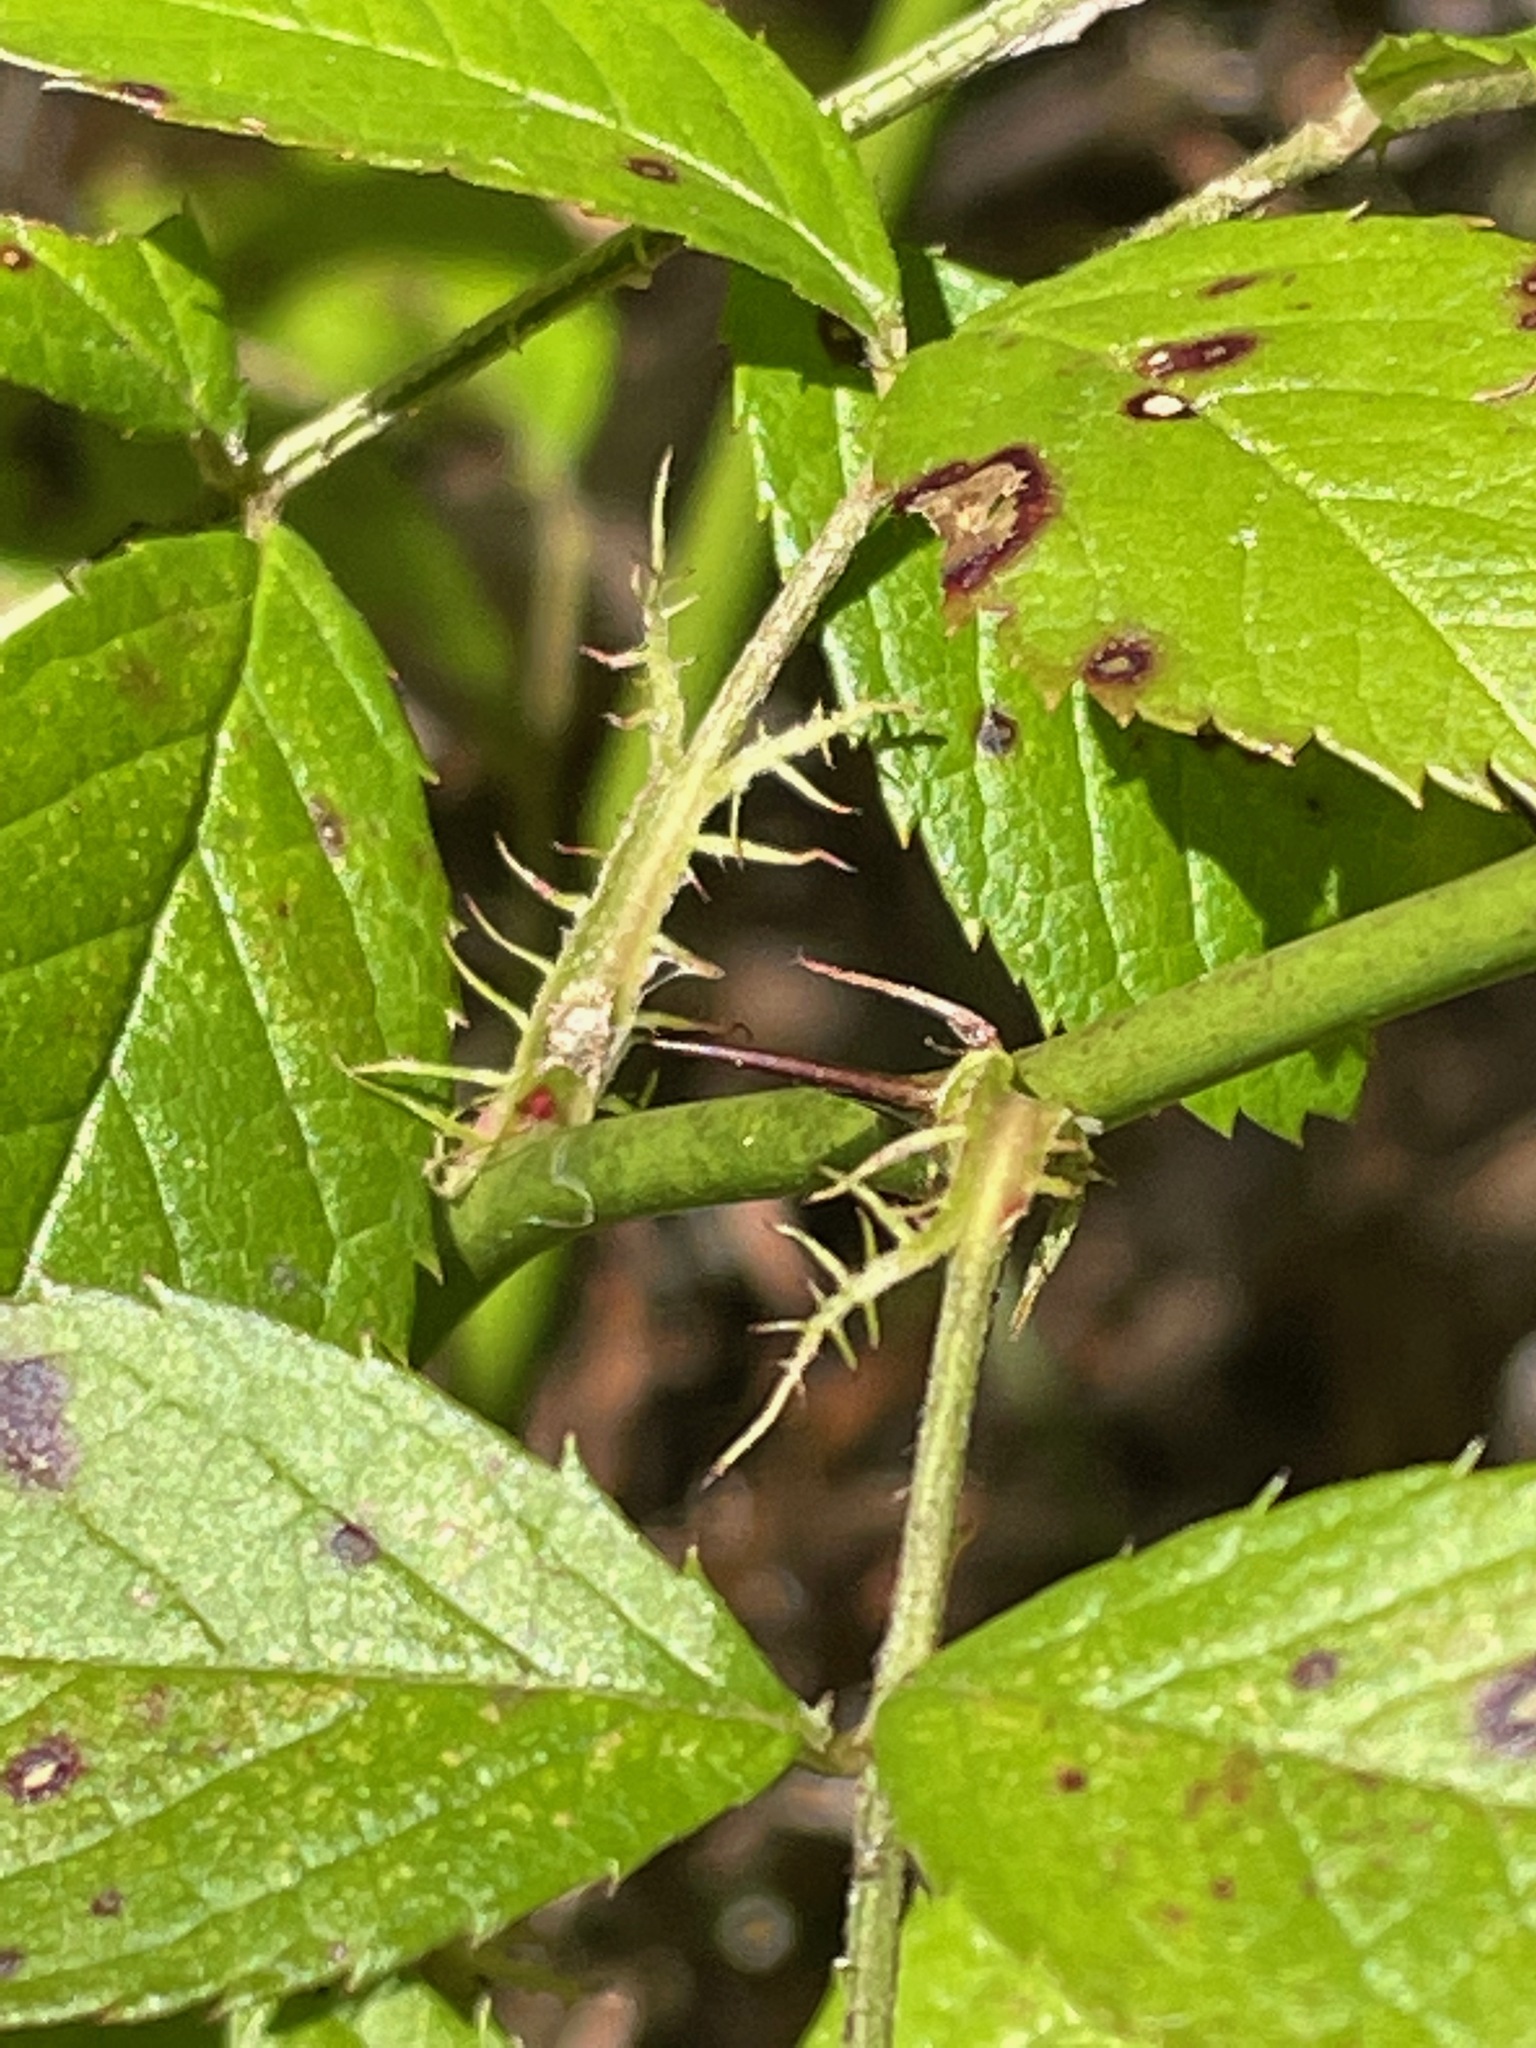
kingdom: Plantae
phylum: Tracheophyta
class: Magnoliopsida
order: Rosales
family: Rosaceae
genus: Rosa
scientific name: Rosa multiflora
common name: Multiflora rose
